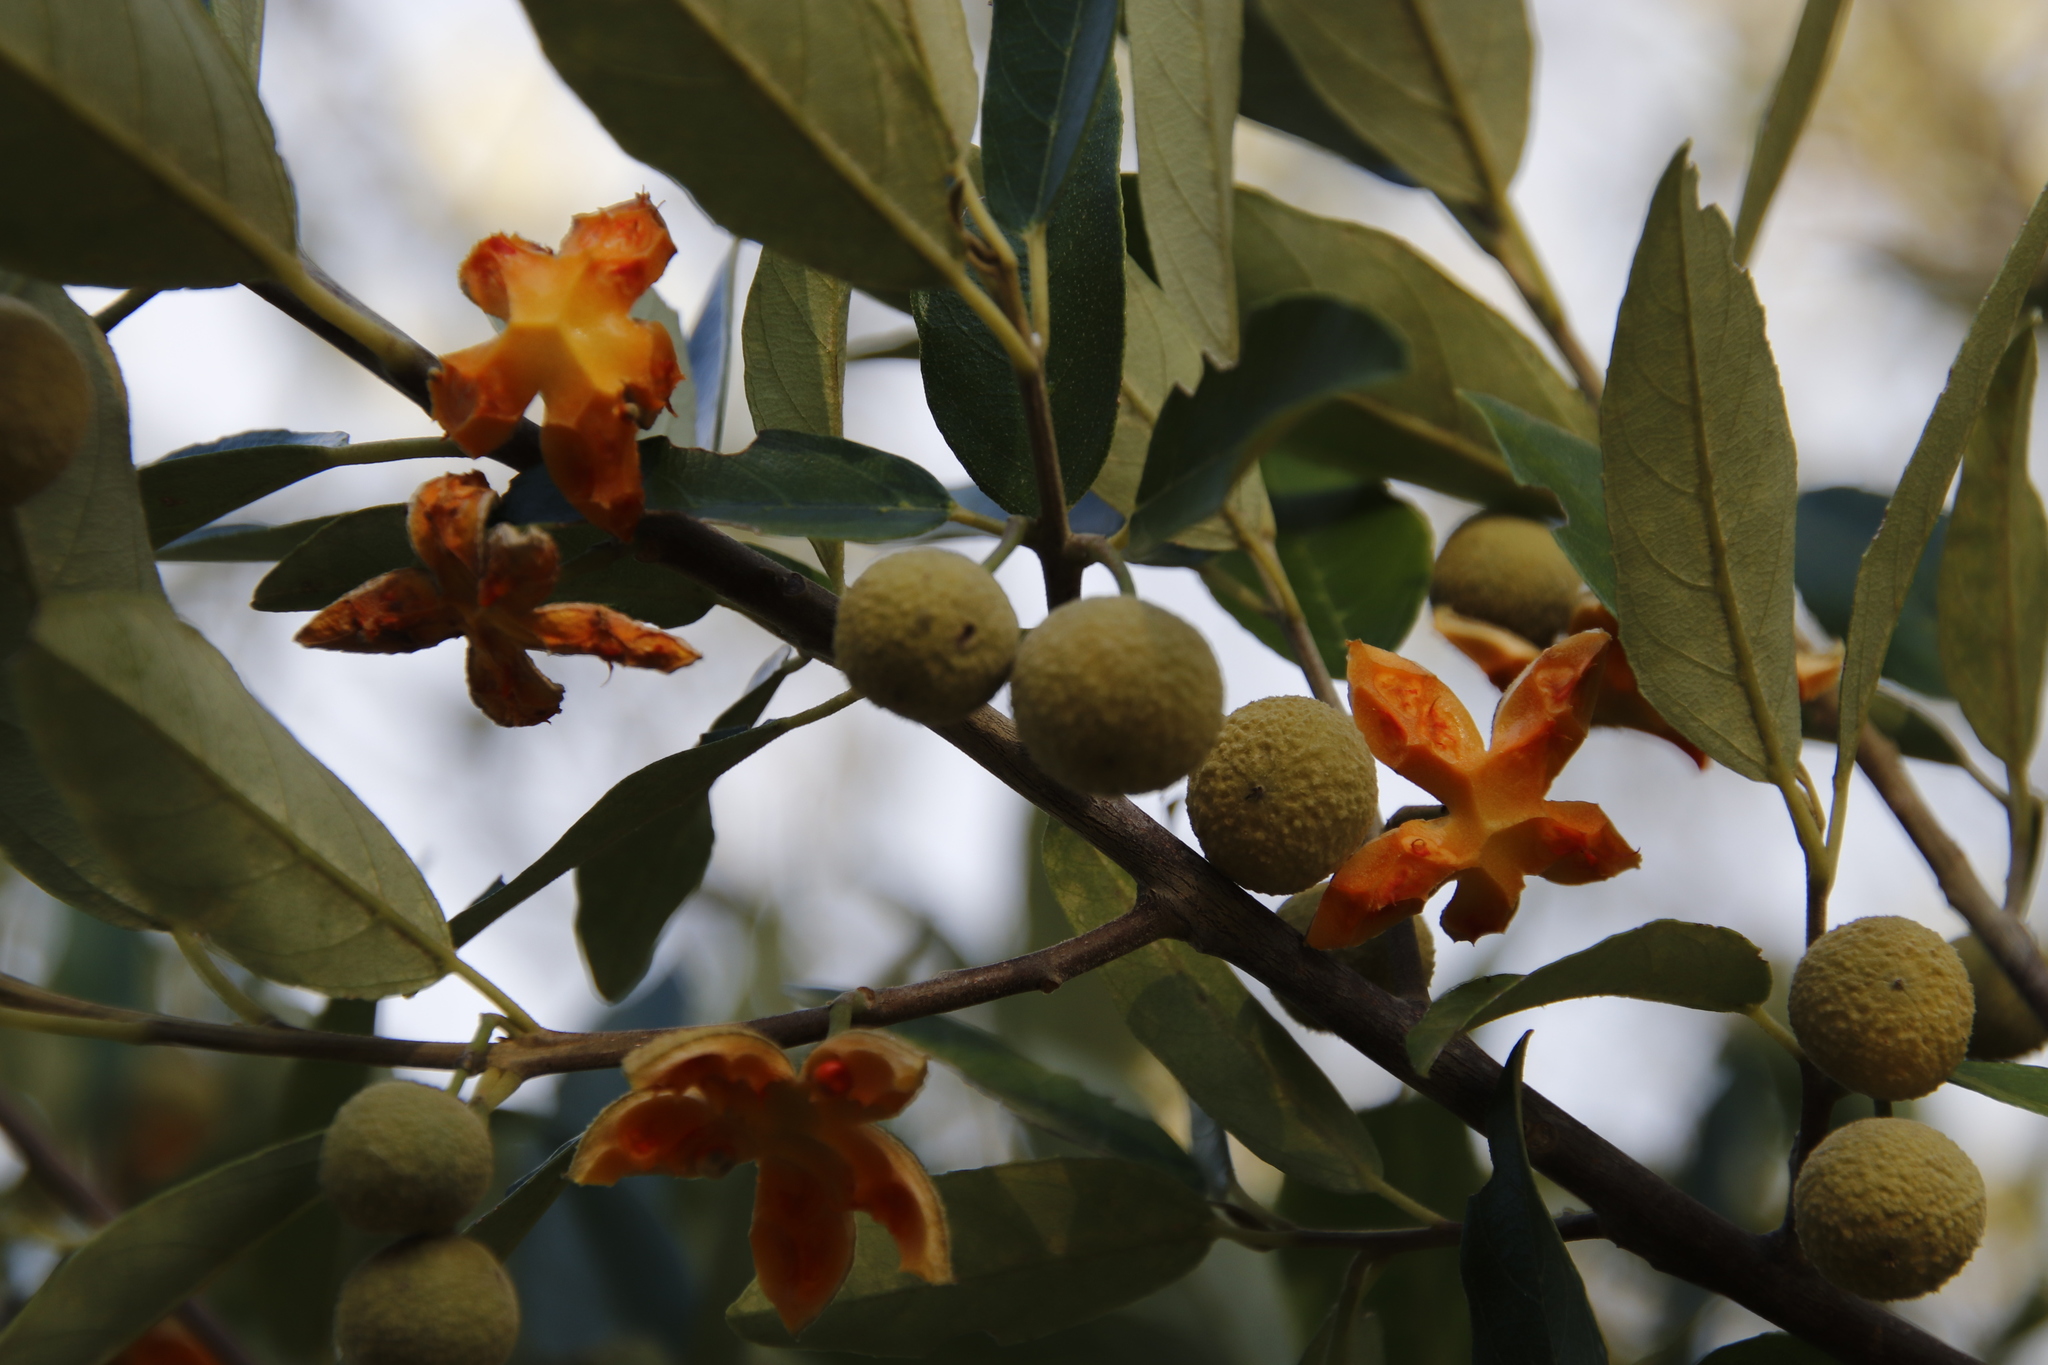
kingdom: Plantae
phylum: Tracheophyta
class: Magnoliopsida
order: Malpighiales
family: Achariaceae
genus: Kiggelaria
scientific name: Kiggelaria africana
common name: Wild peach
